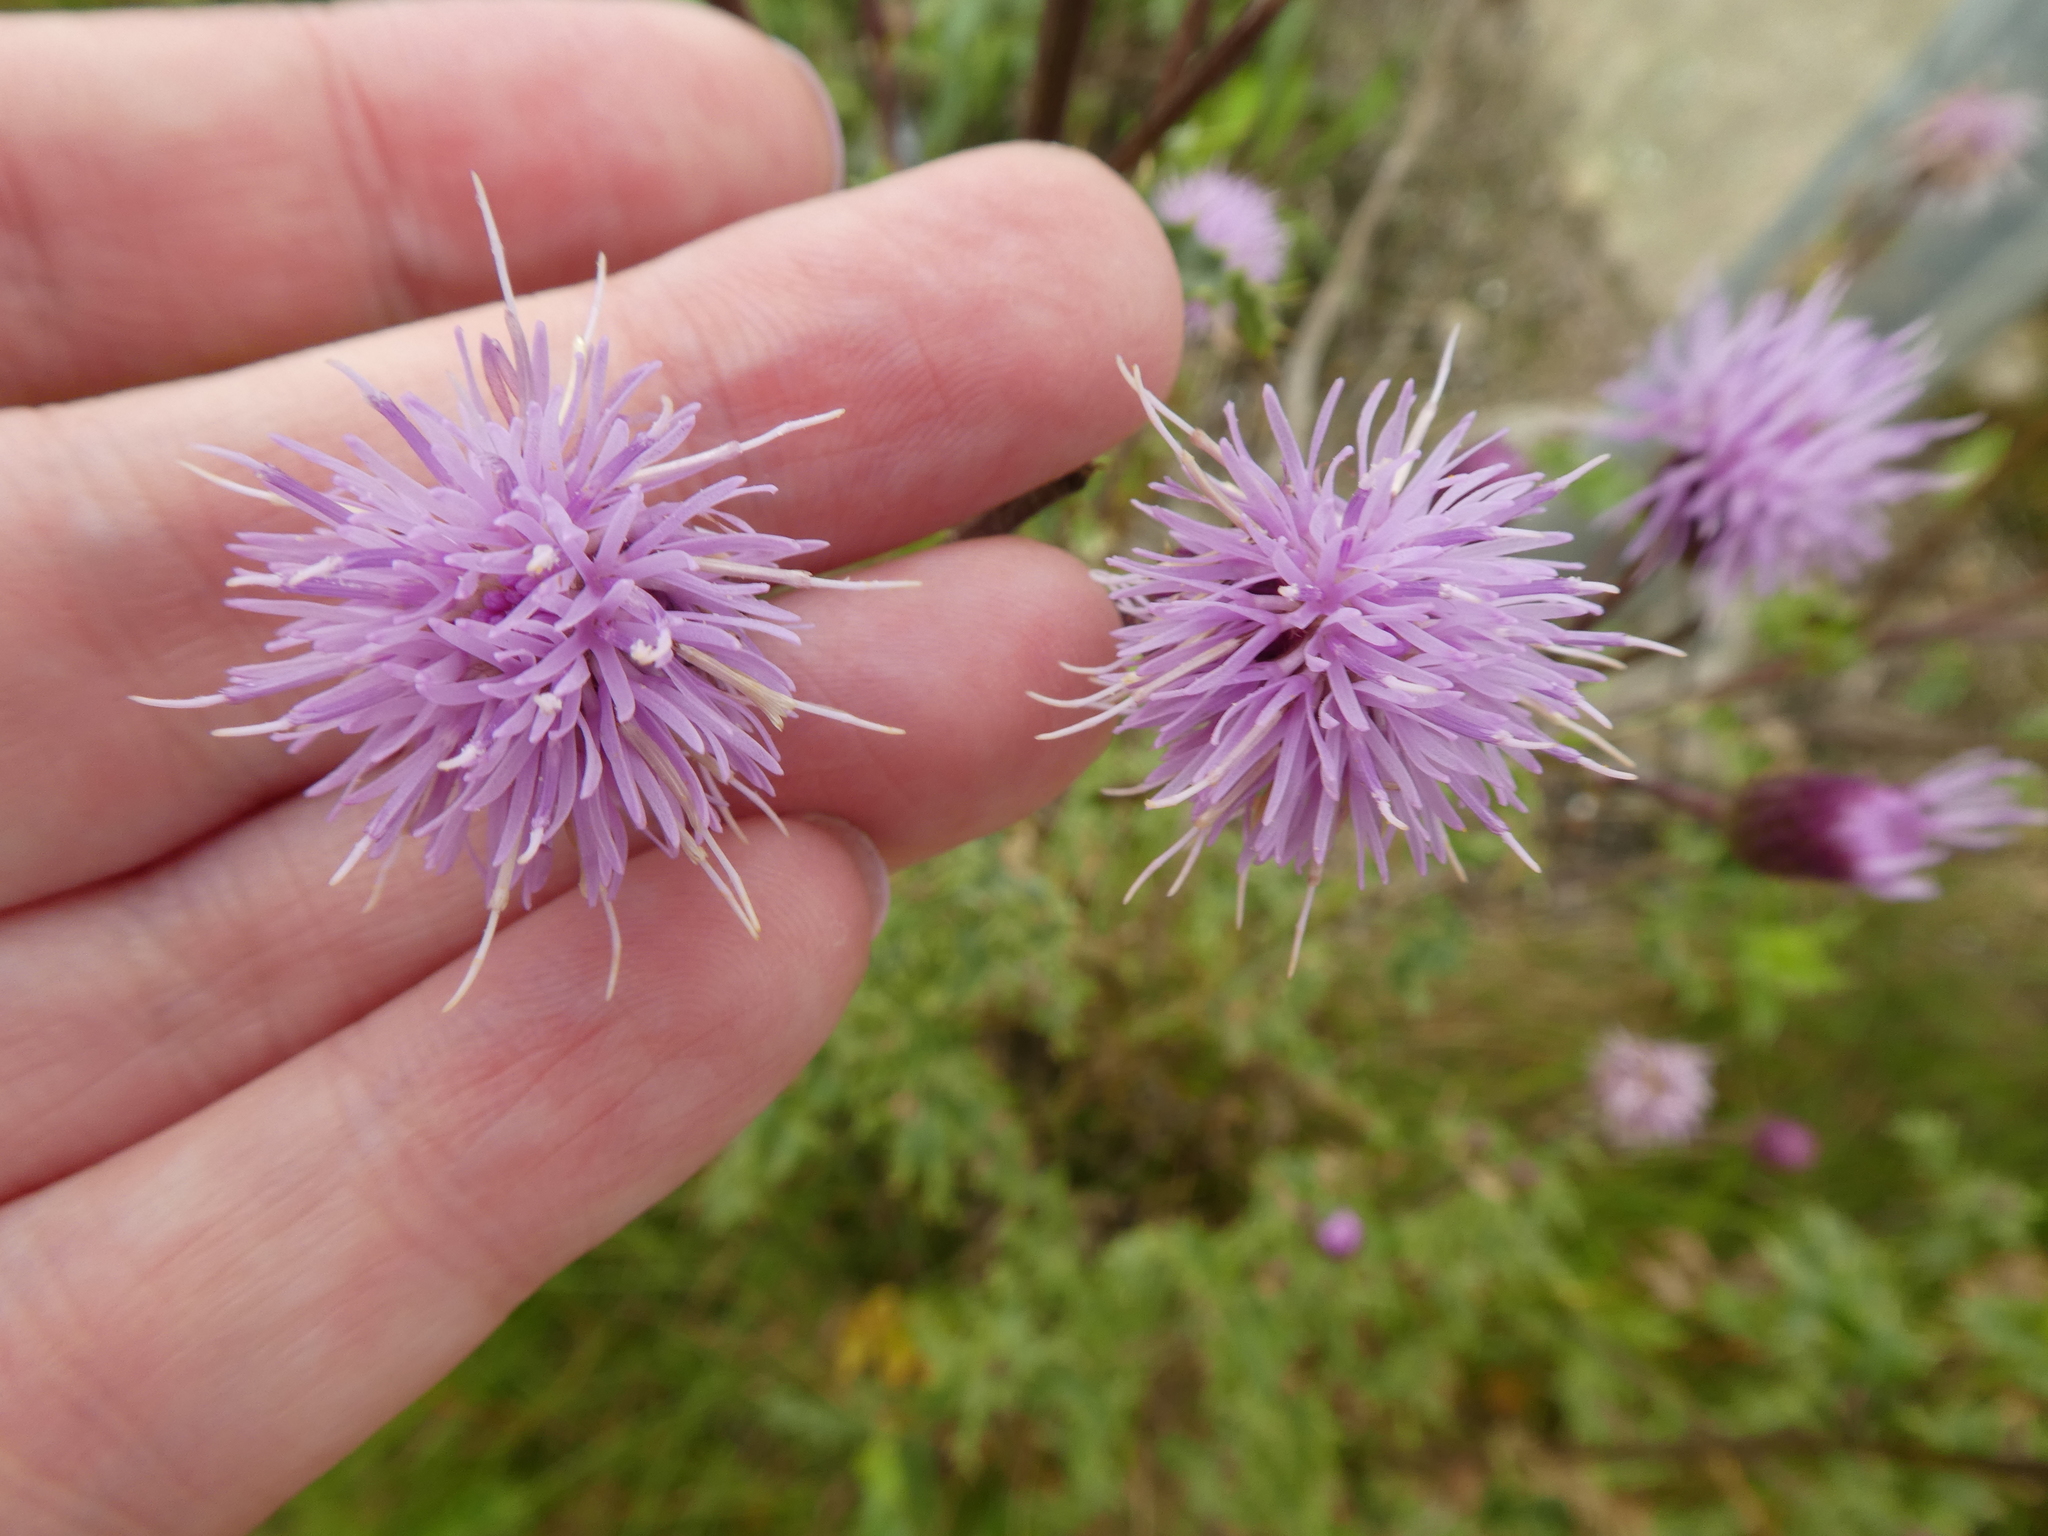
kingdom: Plantae
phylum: Tracheophyta
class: Magnoliopsida
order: Asterales
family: Asteraceae
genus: Cirsium
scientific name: Cirsium arvense
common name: Creeping thistle
